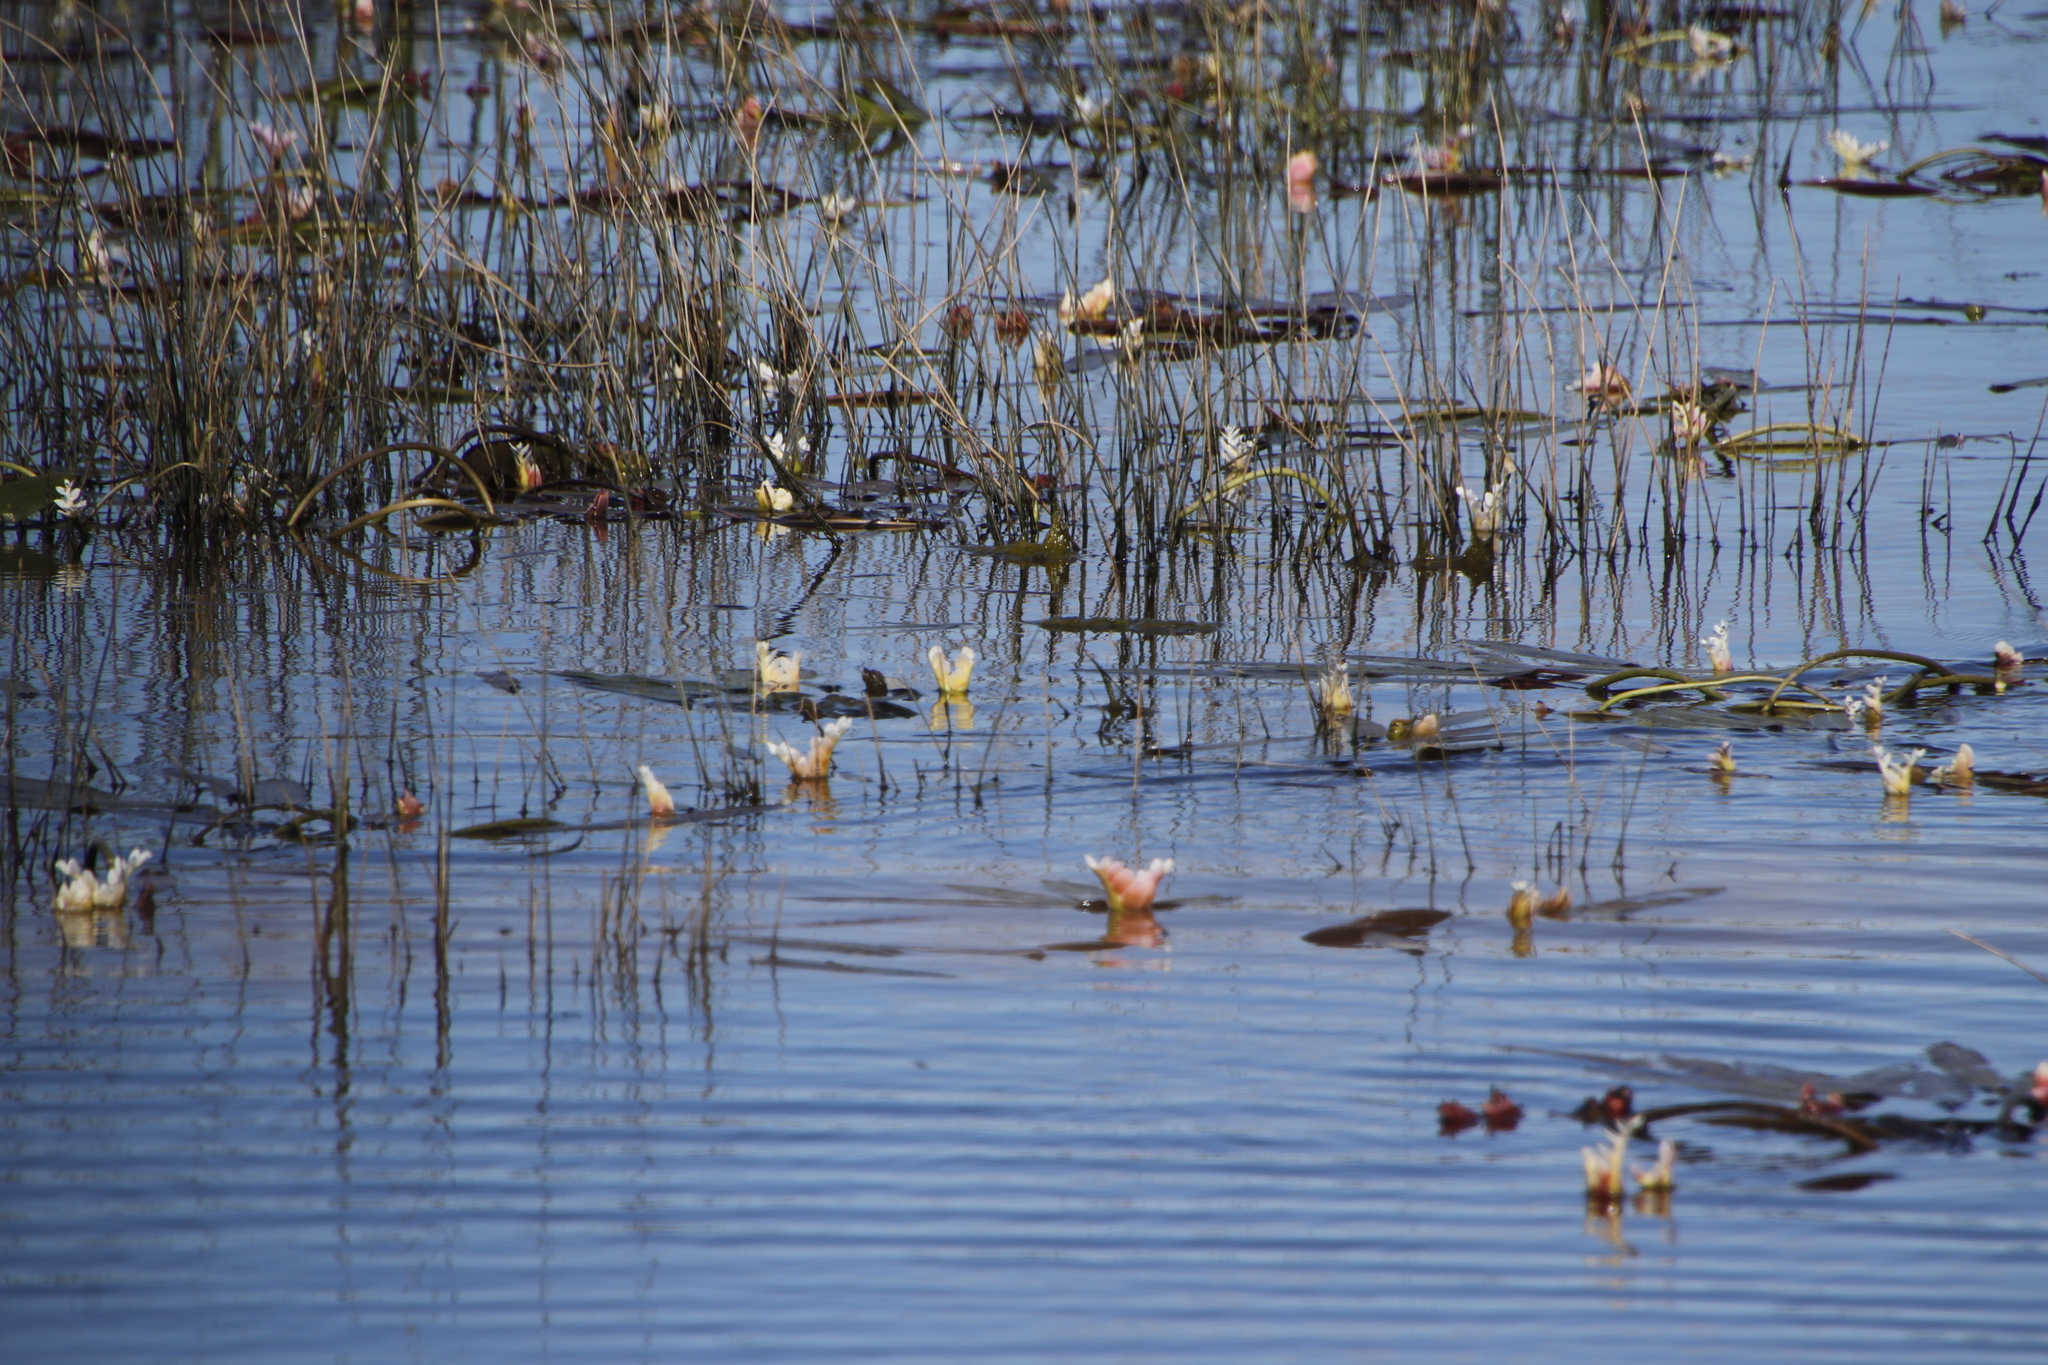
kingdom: Plantae
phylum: Tracheophyta
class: Liliopsida
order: Alismatales
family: Aponogetonaceae
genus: Aponogeton
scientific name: Aponogeton distachyos
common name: Cape-pondweed
